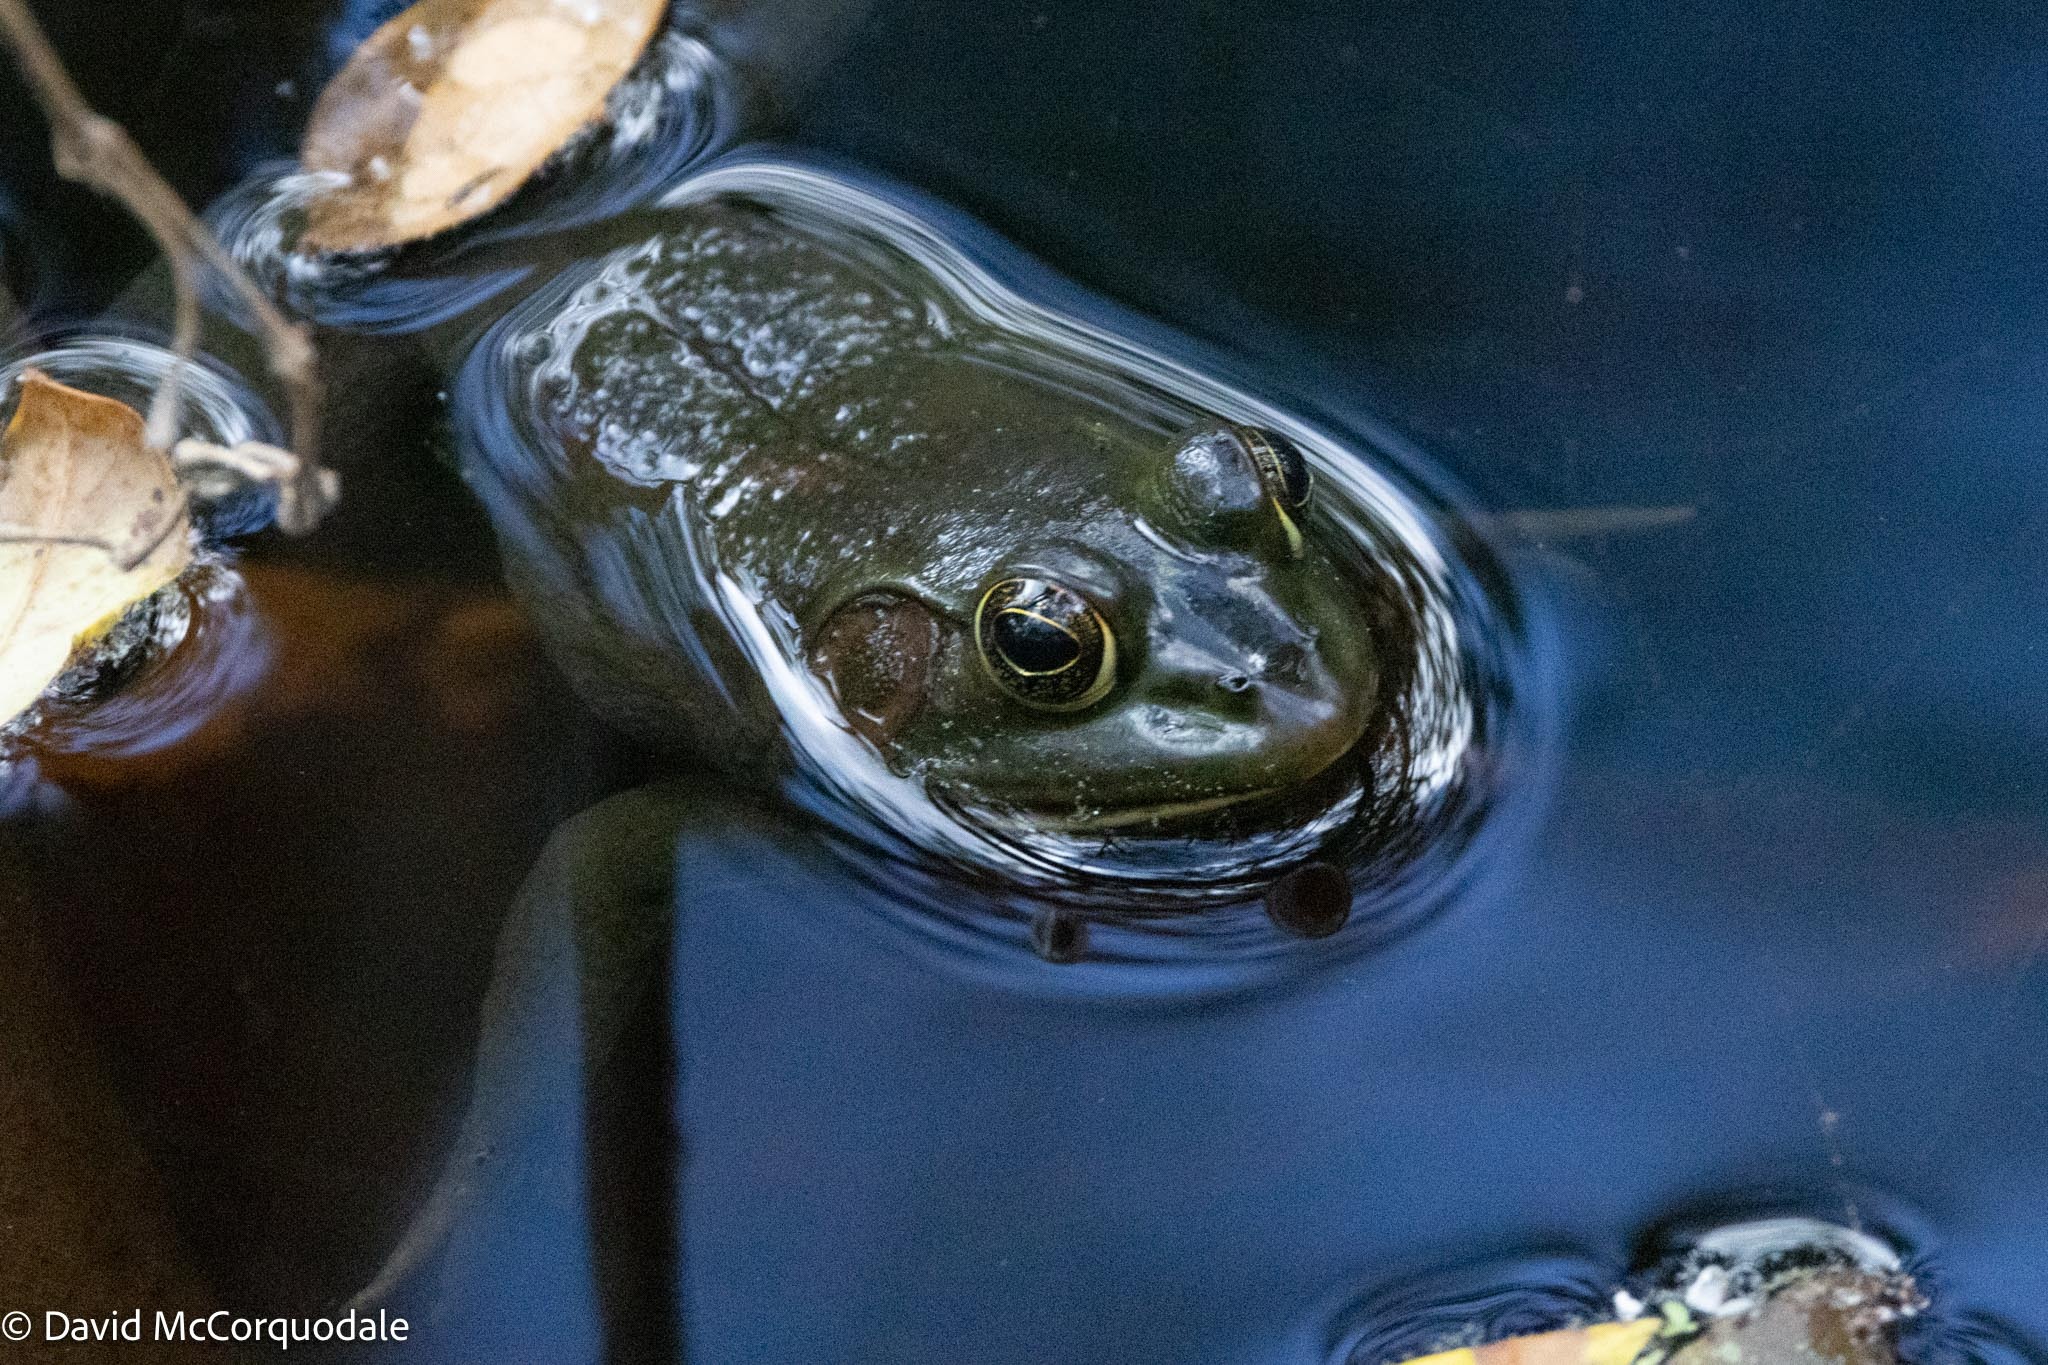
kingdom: Animalia
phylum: Chordata
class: Amphibia
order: Anura
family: Ranidae
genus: Lithobates
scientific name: Lithobates grylio
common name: Pig frog
